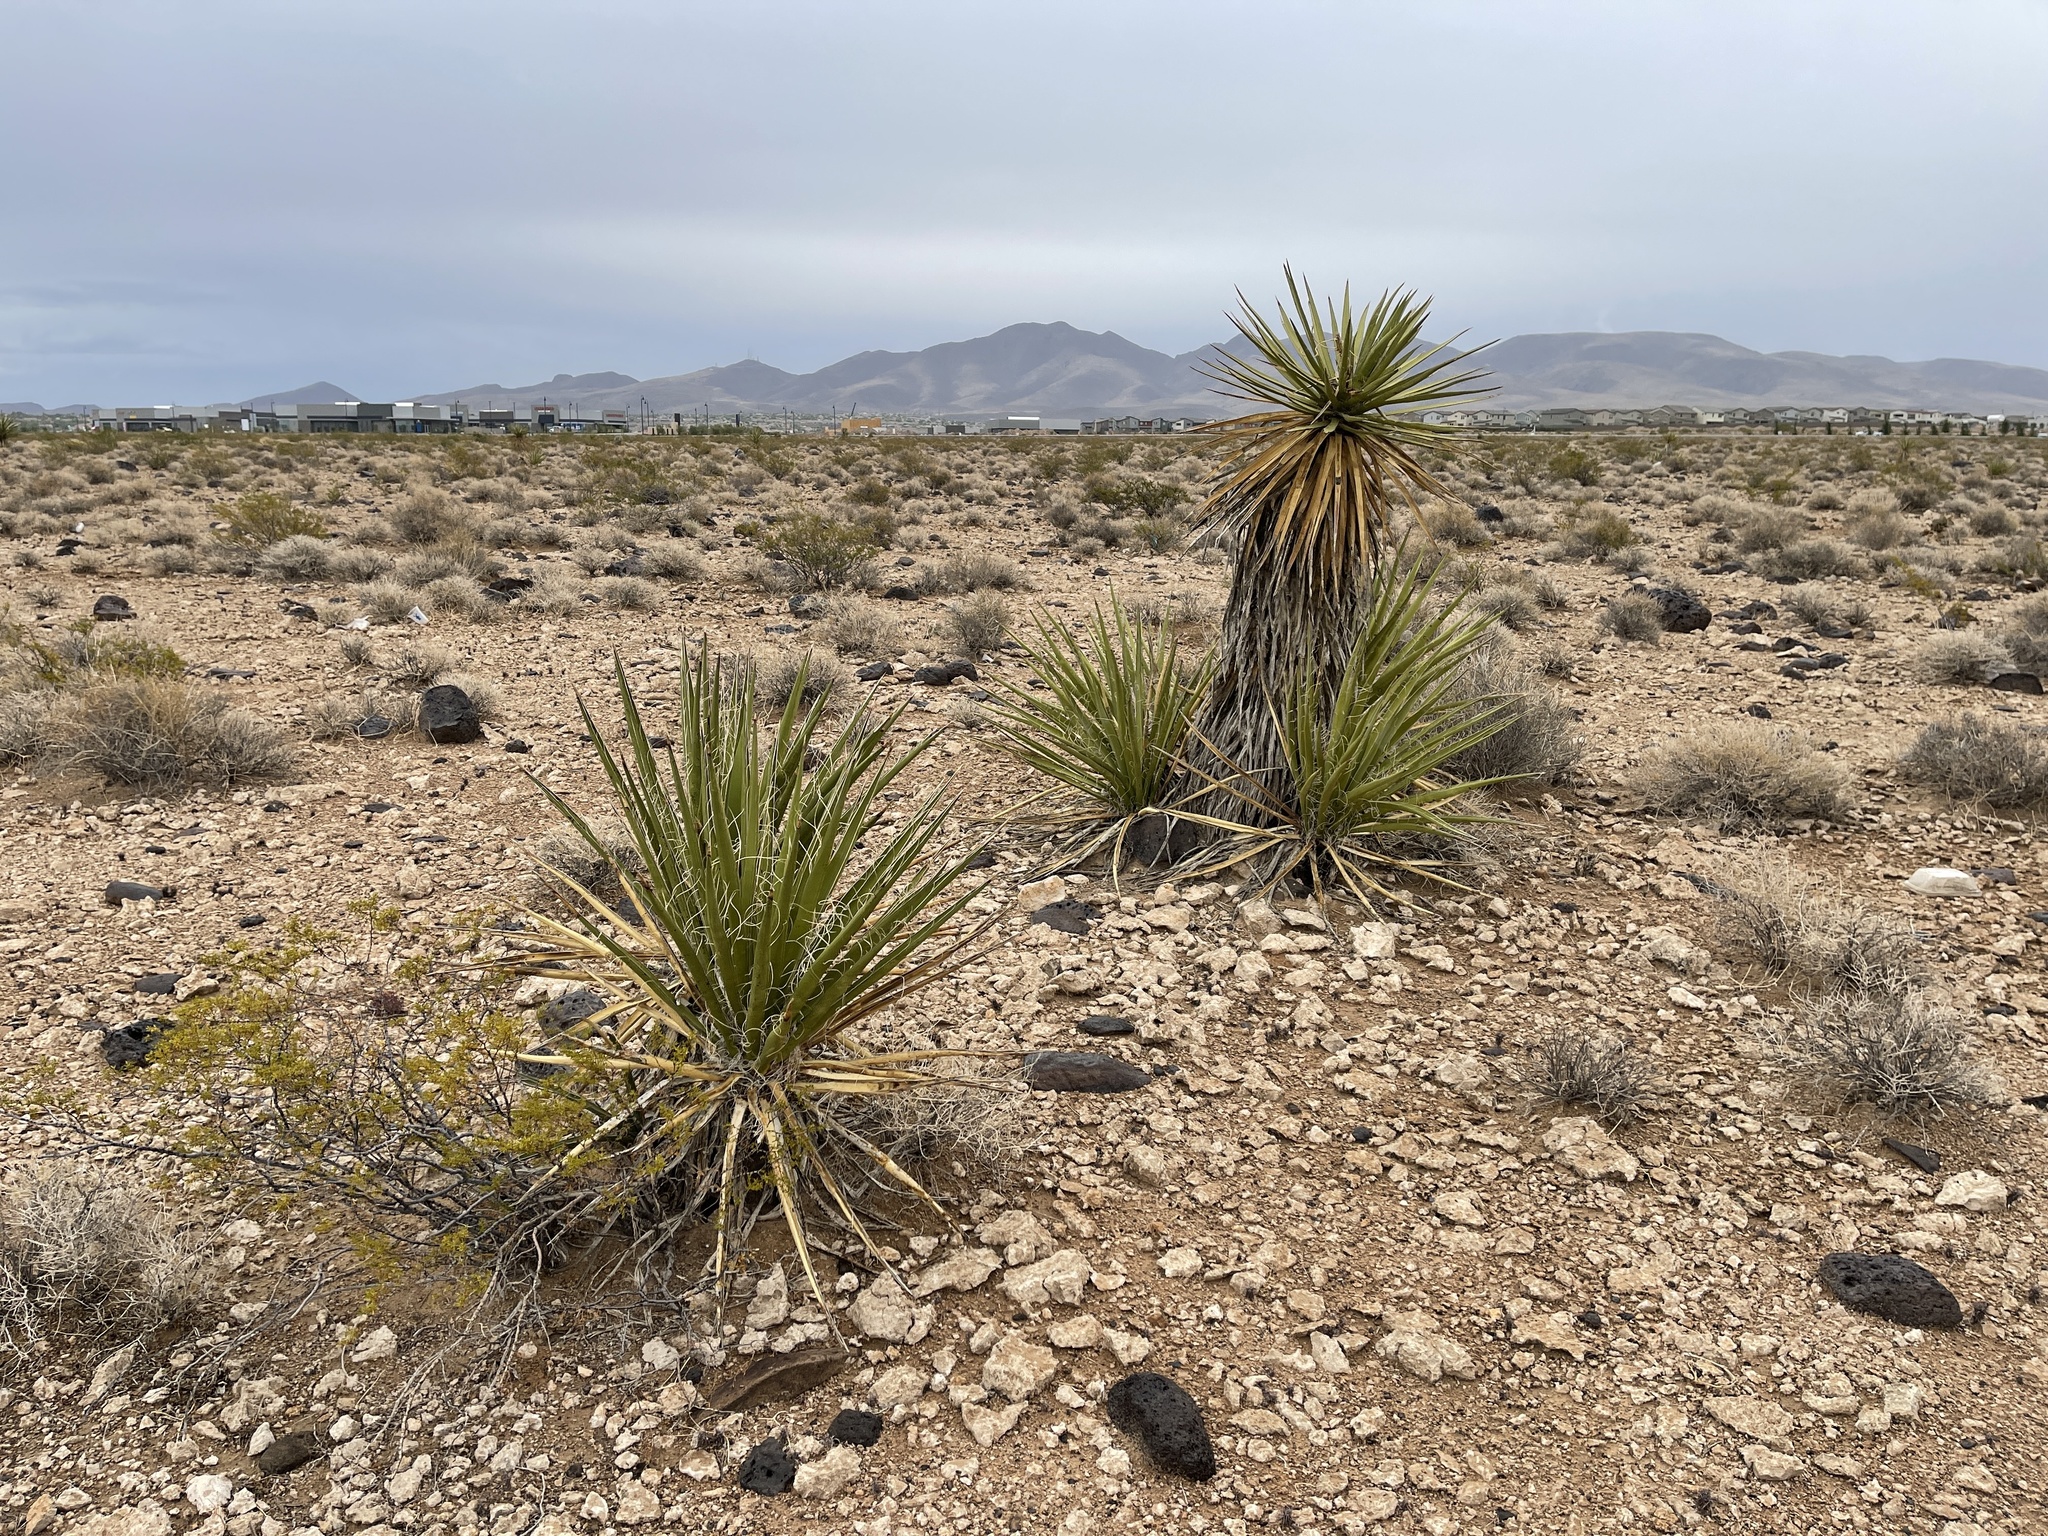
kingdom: Plantae
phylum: Tracheophyta
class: Liliopsida
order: Asparagales
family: Asparagaceae
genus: Yucca
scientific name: Yucca schidigera
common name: Mojave yucca
